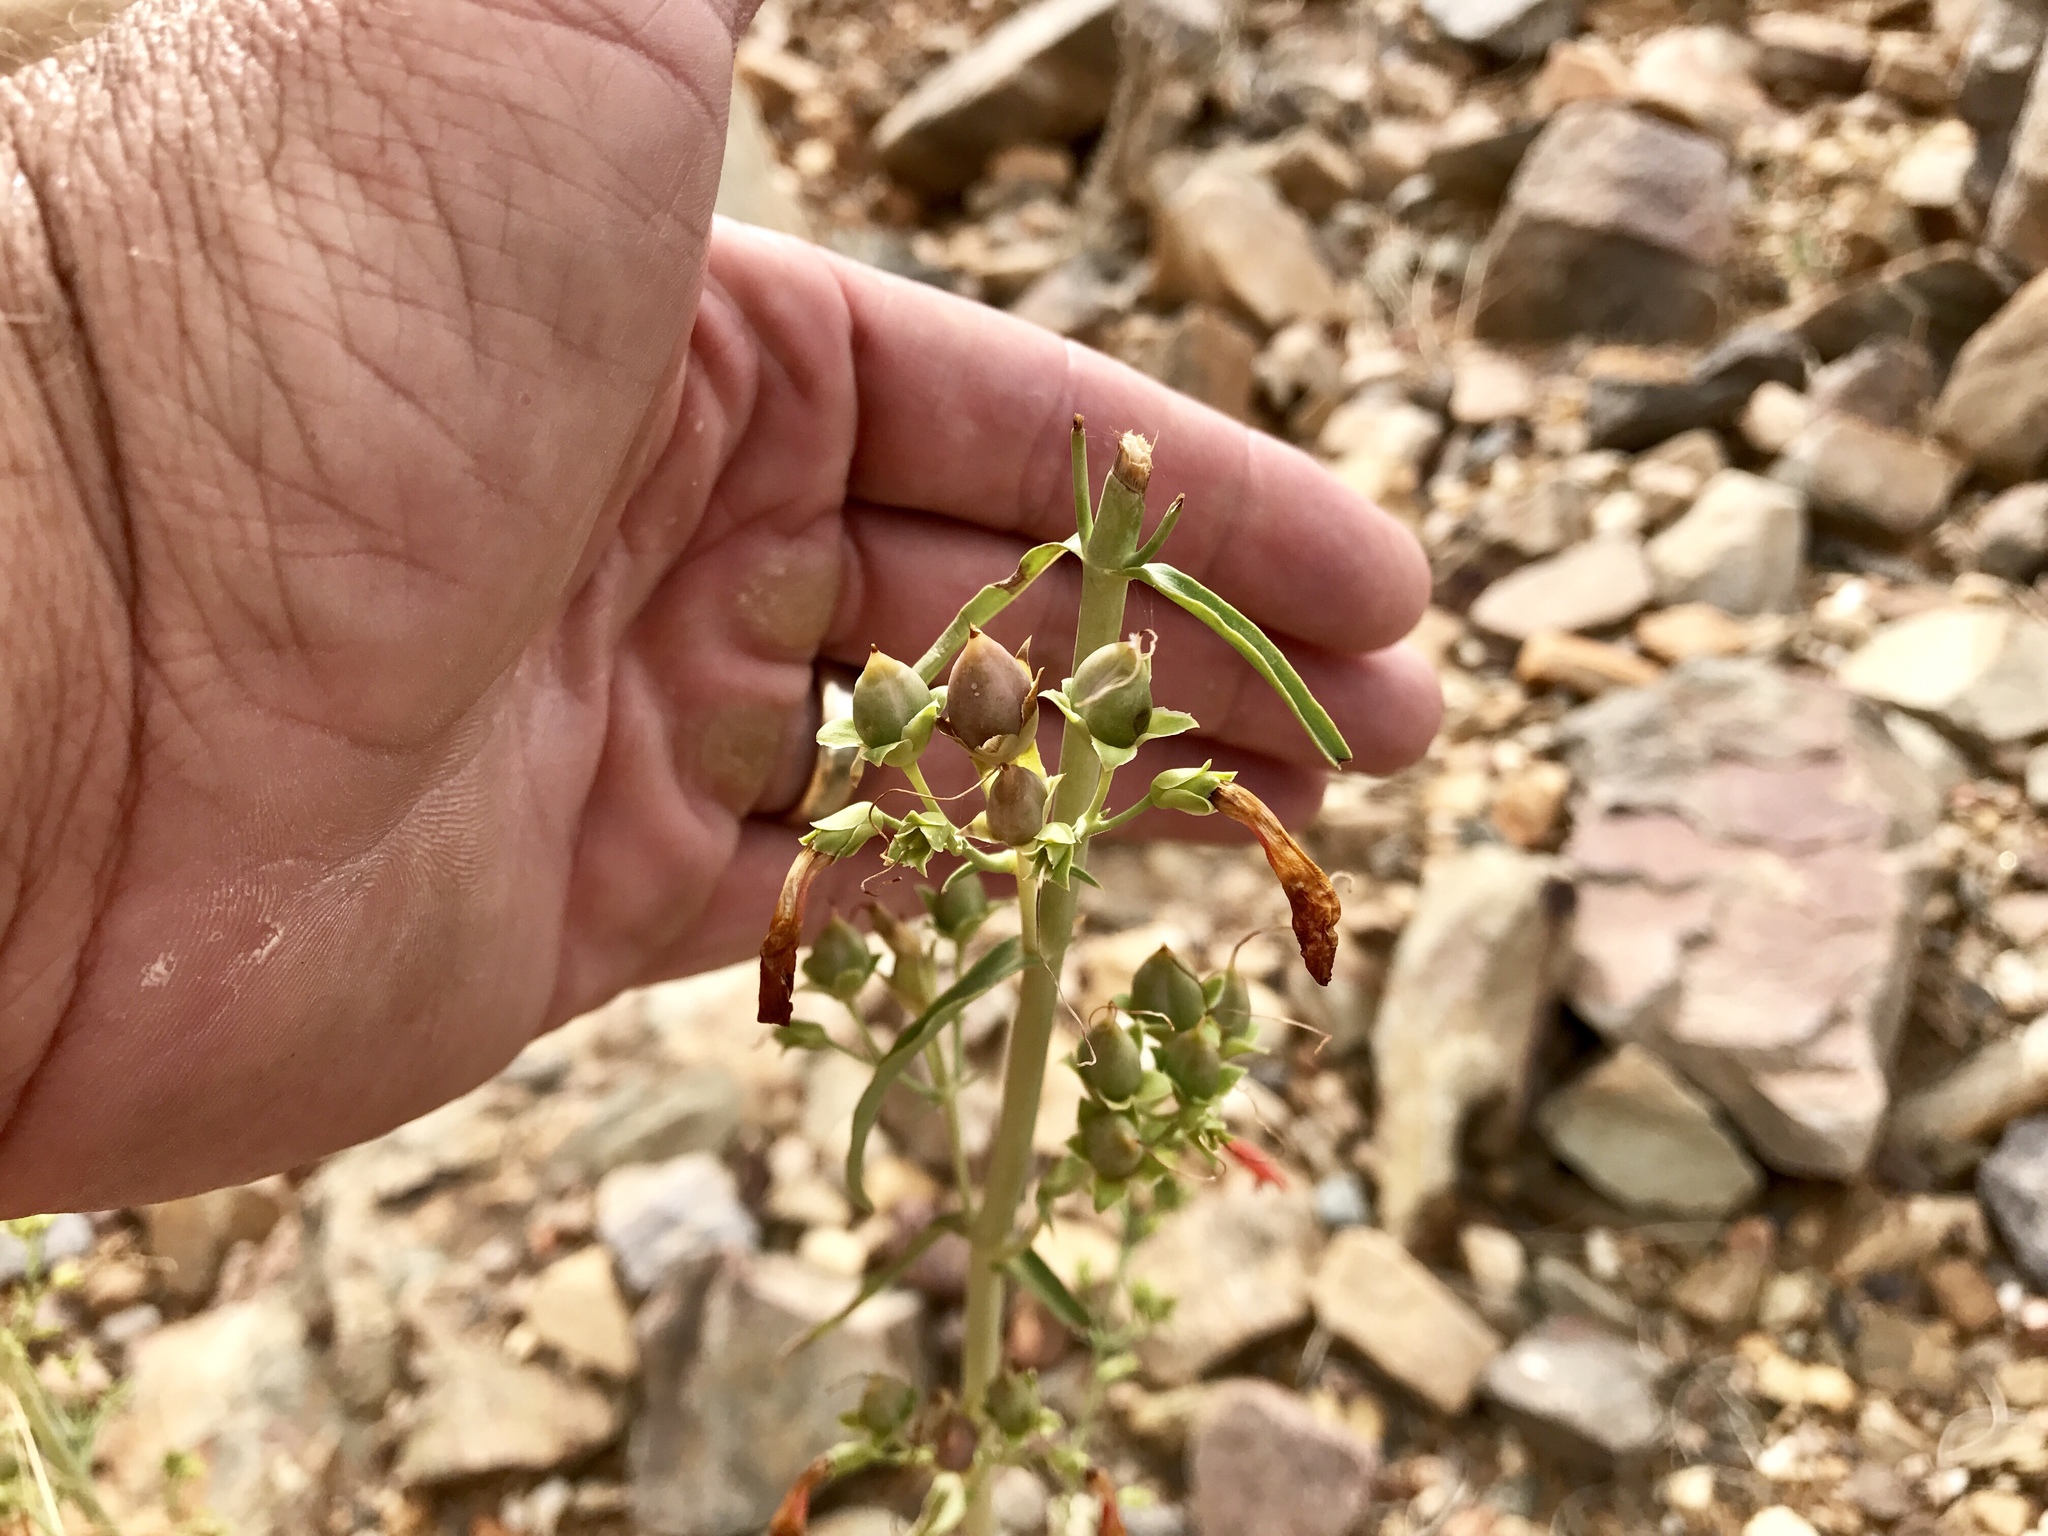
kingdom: Plantae
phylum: Tracheophyta
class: Magnoliopsida
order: Lamiales
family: Plantaginaceae
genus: Penstemon
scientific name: Penstemon
